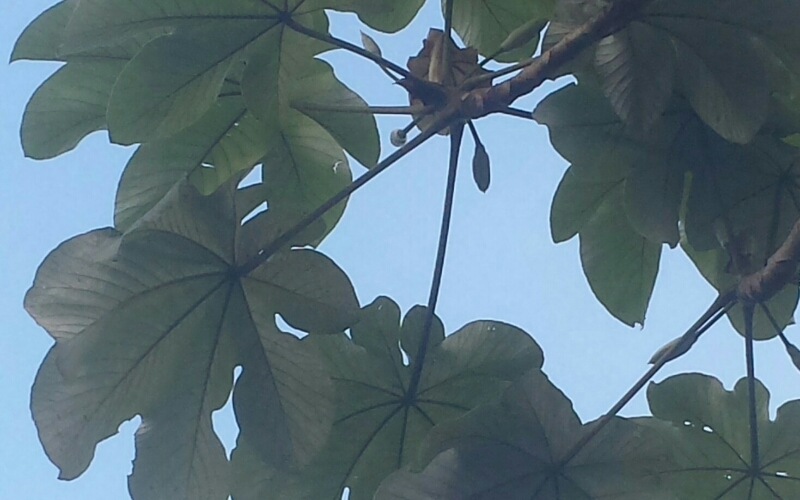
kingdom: Plantae
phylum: Tracheophyta
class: Magnoliopsida
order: Rosales
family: Urticaceae
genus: Cecropia
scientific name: Cecropia schreberiana
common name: Trumpet tree
